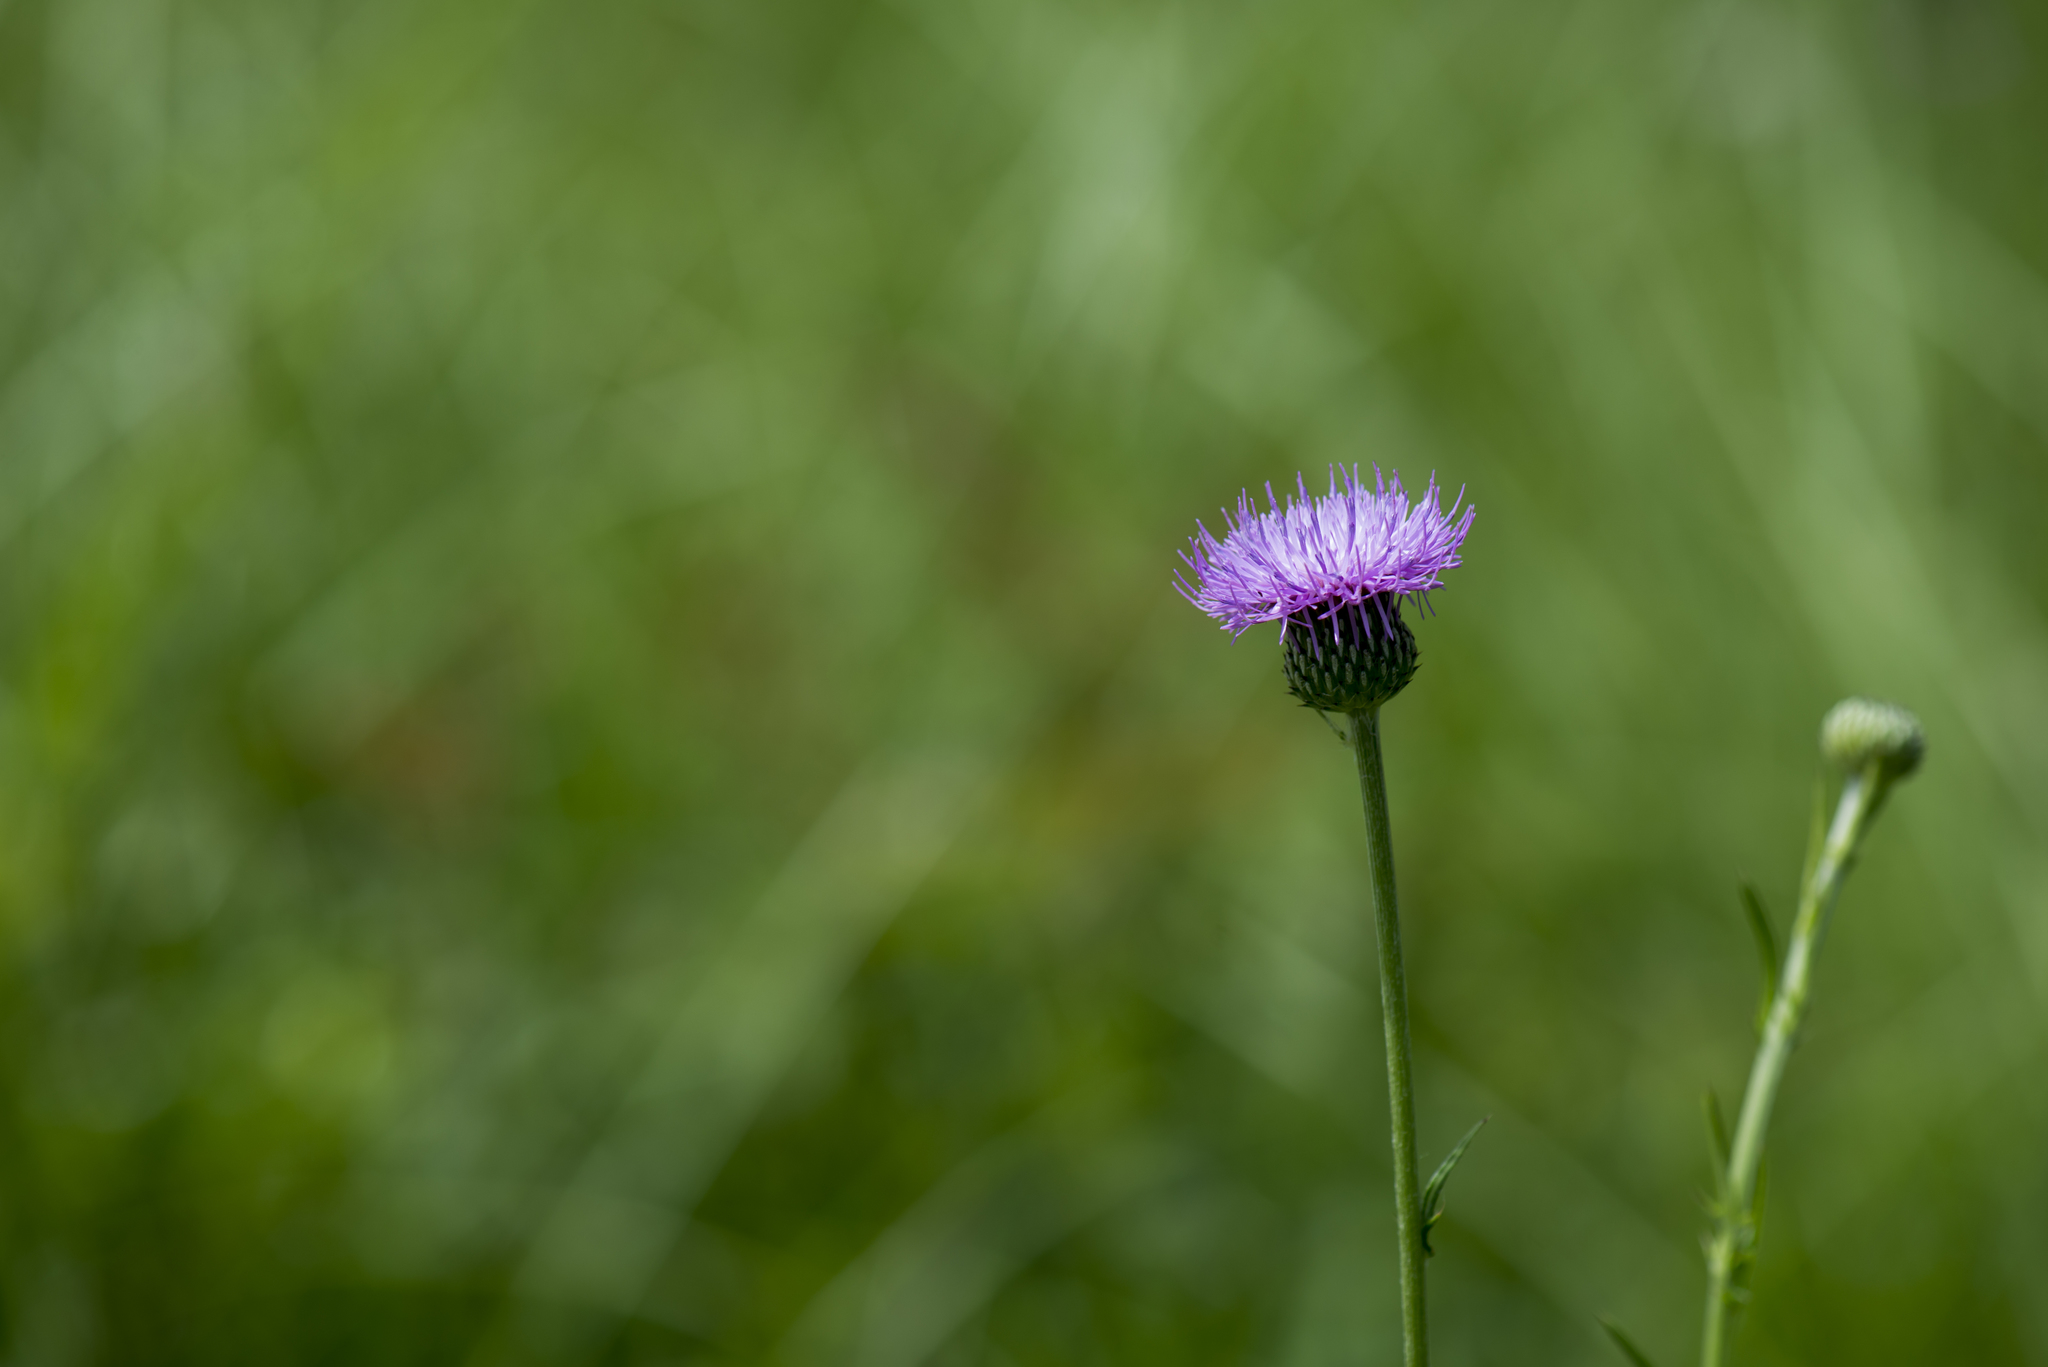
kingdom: Plantae
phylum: Tracheophyta
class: Magnoliopsida
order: Asterales
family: Asteraceae
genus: Cirsium
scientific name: Cirsium lineare
